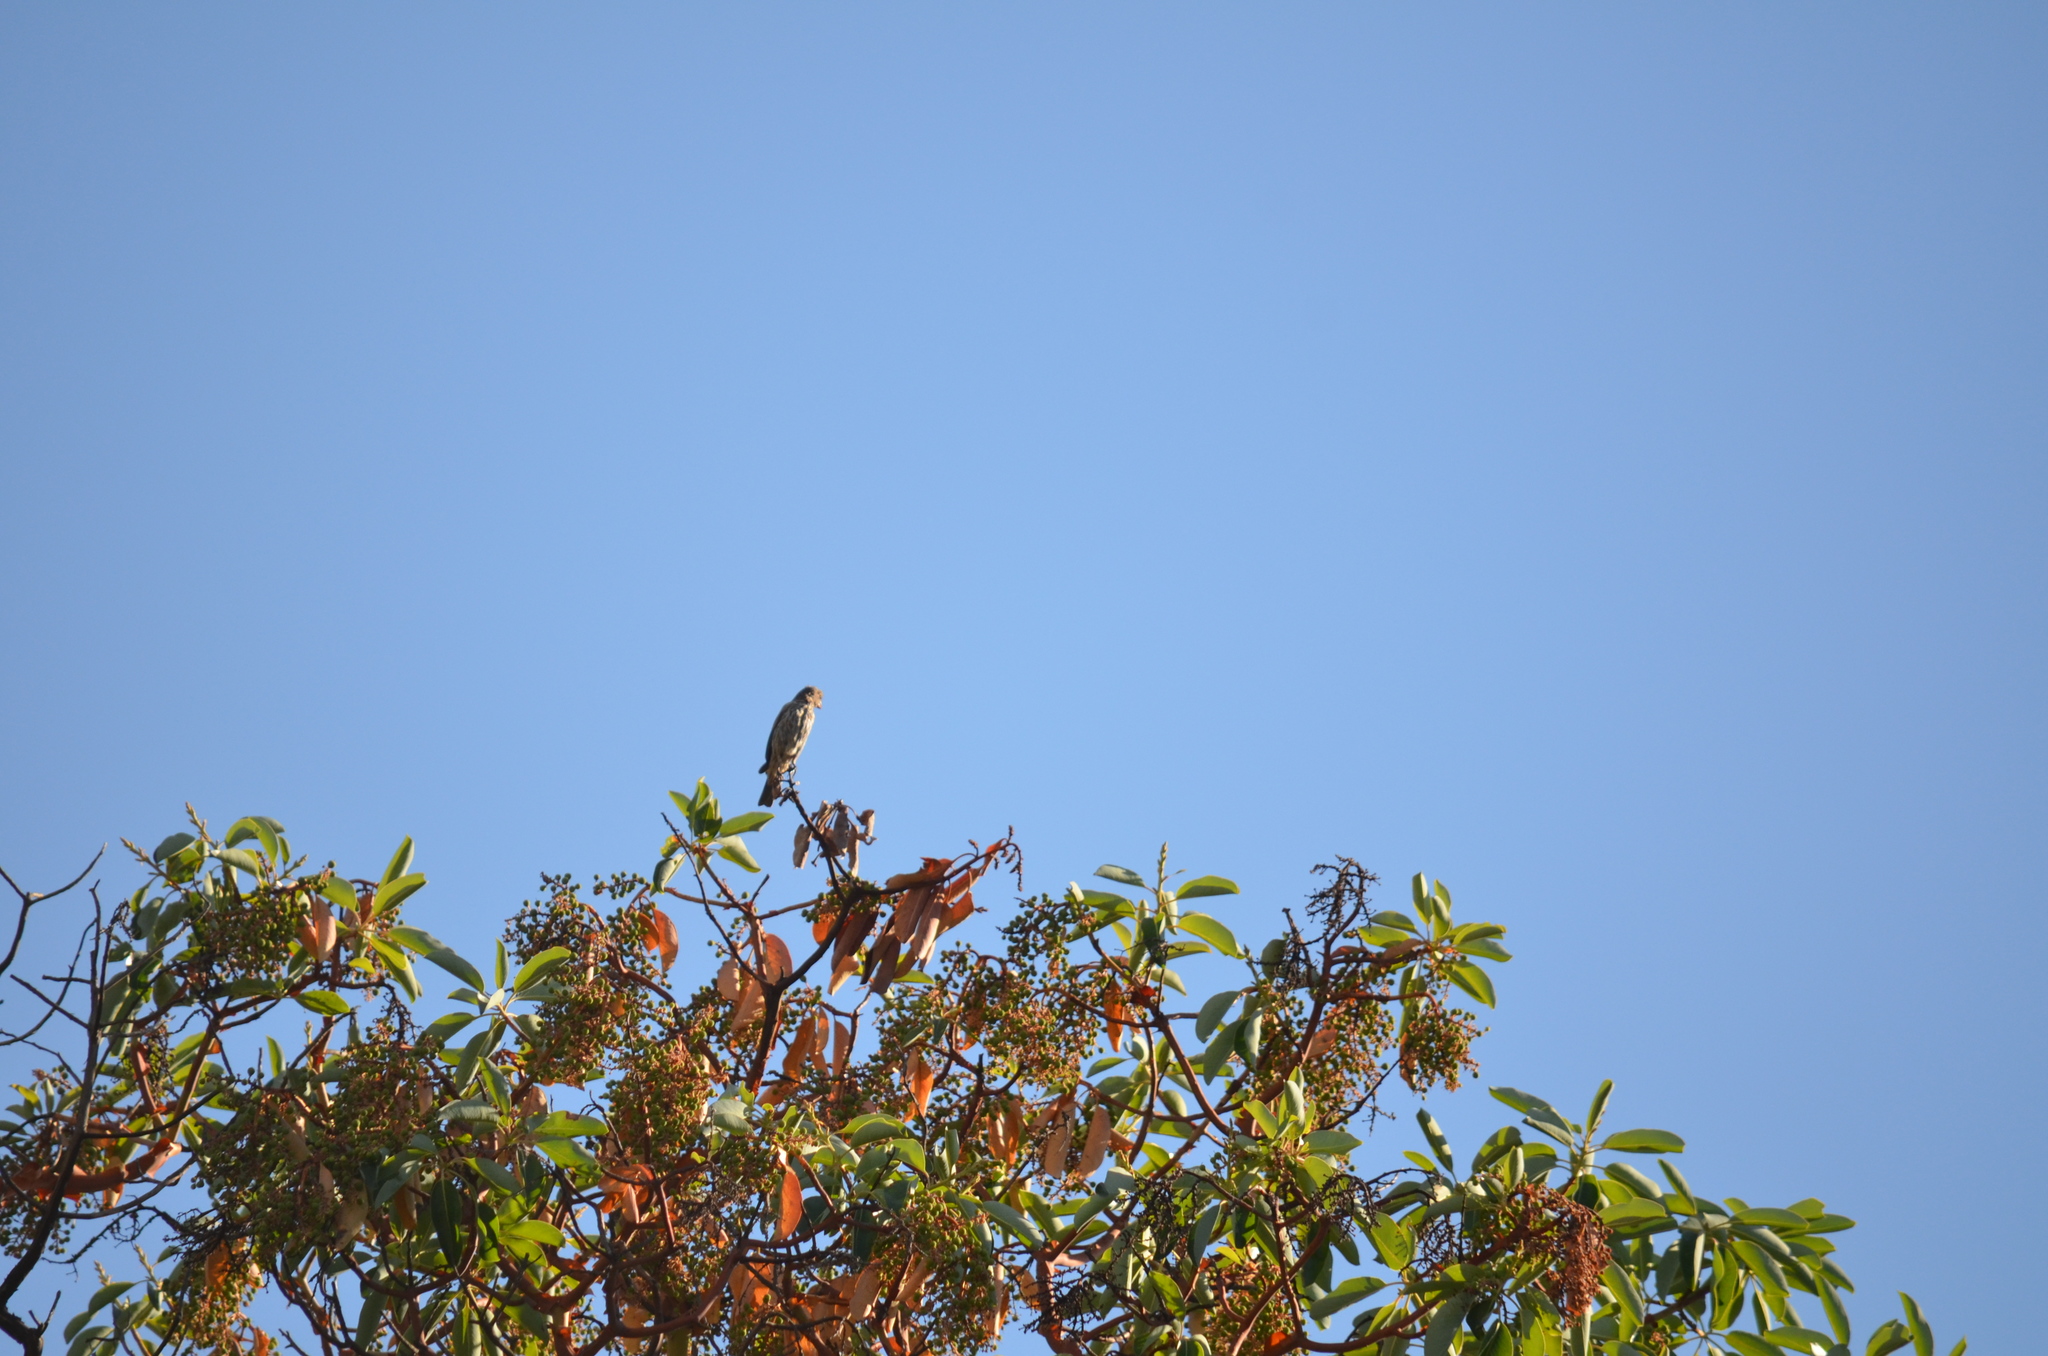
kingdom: Animalia
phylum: Chordata
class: Aves
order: Passeriformes
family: Fringillidae
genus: Haemorhous
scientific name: Haemorhous mexicanus
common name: House finch
